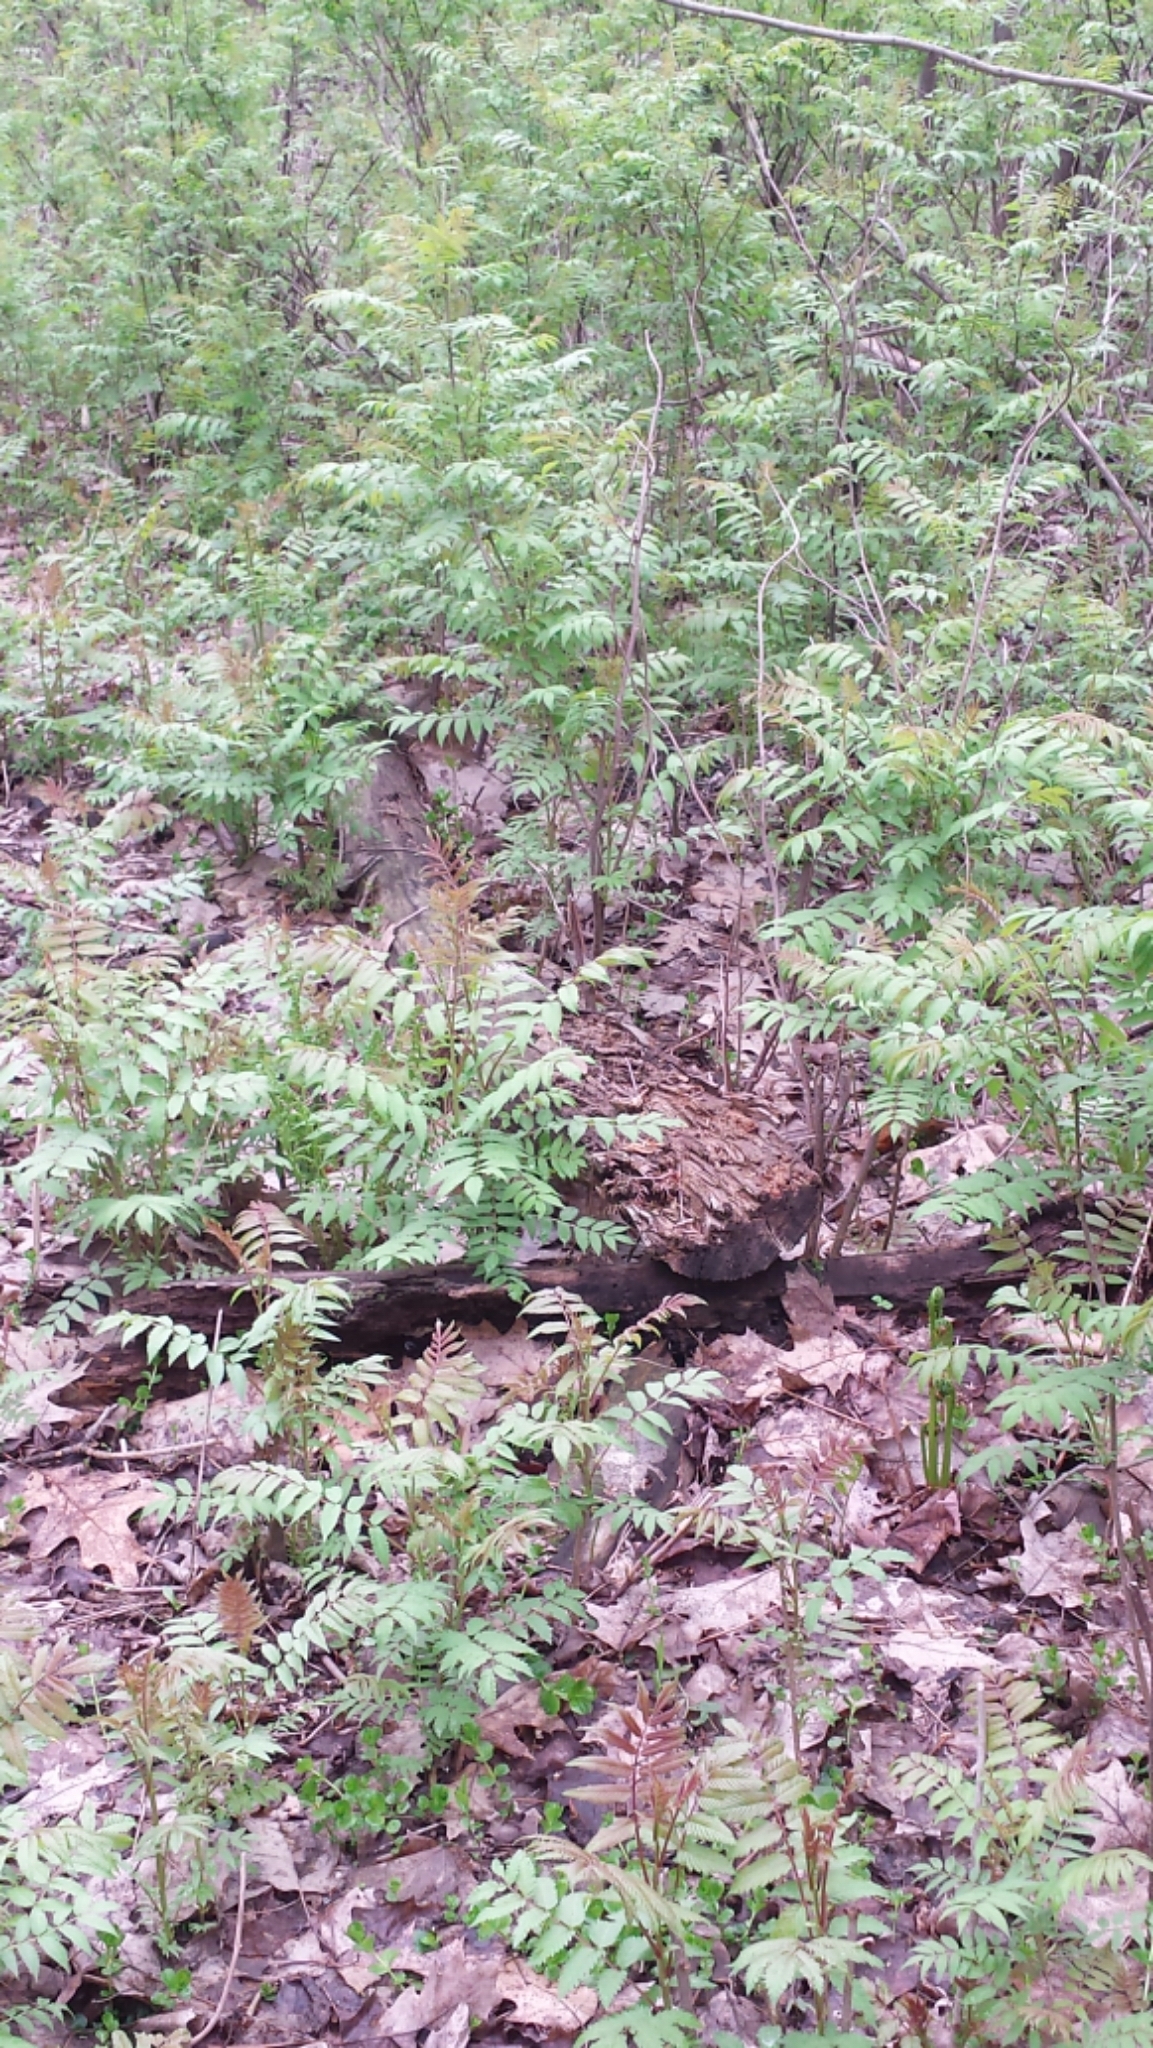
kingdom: Plantae
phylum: Tracheophyta
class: Magnoliopsida
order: Rosales
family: Rosaceae
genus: Sorbaria
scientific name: Sorbaria sorbifolia
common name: False spiraea
